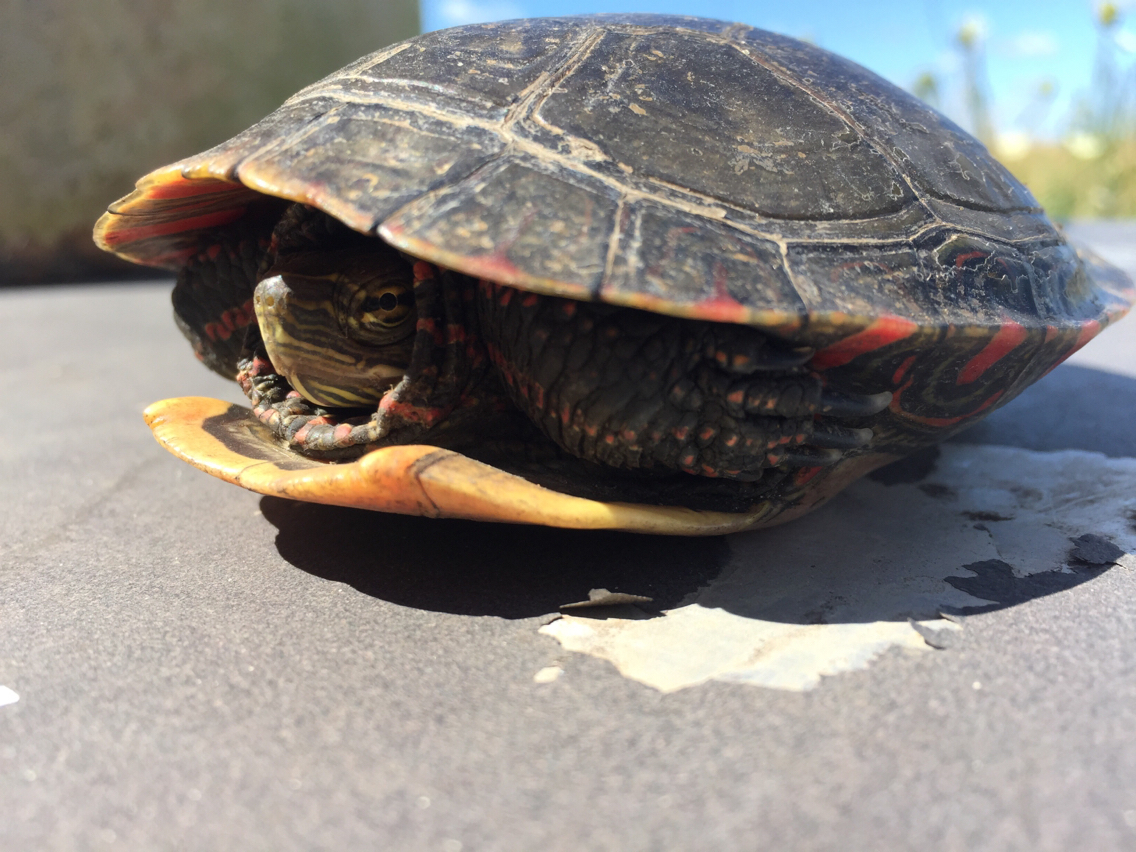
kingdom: Animalia
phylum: Chordata
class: Testudines
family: Emydidae
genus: Chrysemys
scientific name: Chrysemys picta
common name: Painted turtle
